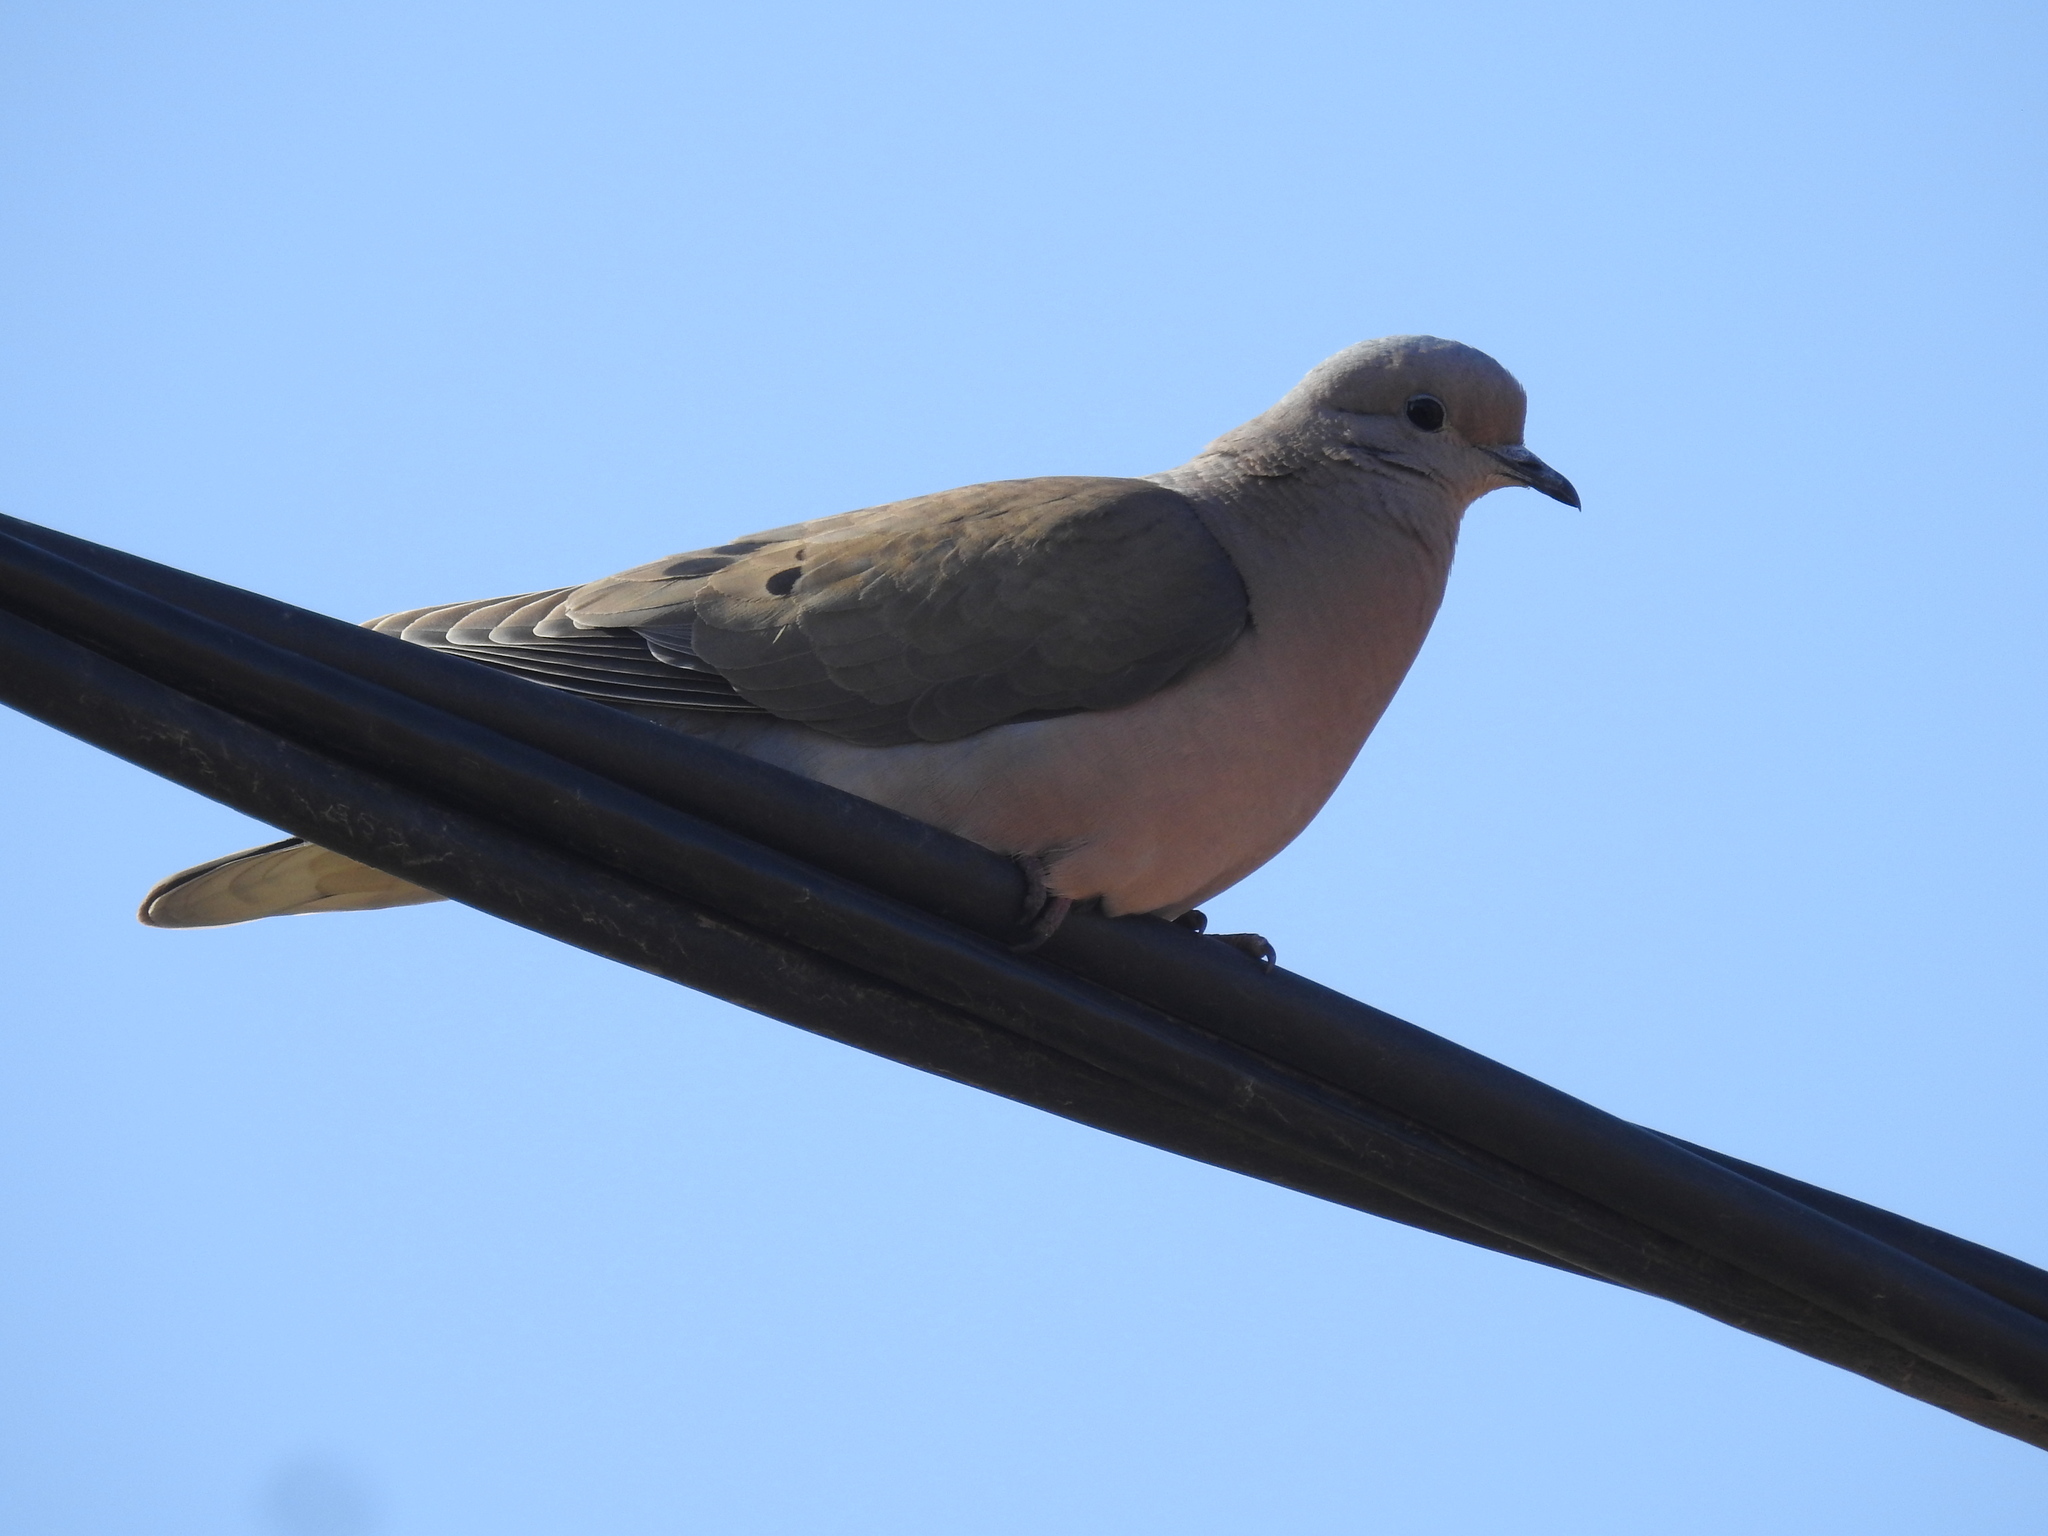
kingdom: Animalia
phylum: Chordata
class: Aves
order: Columbiformes
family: Columbidae
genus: Zenaida
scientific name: Zenaida auriculata
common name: Eared dove
